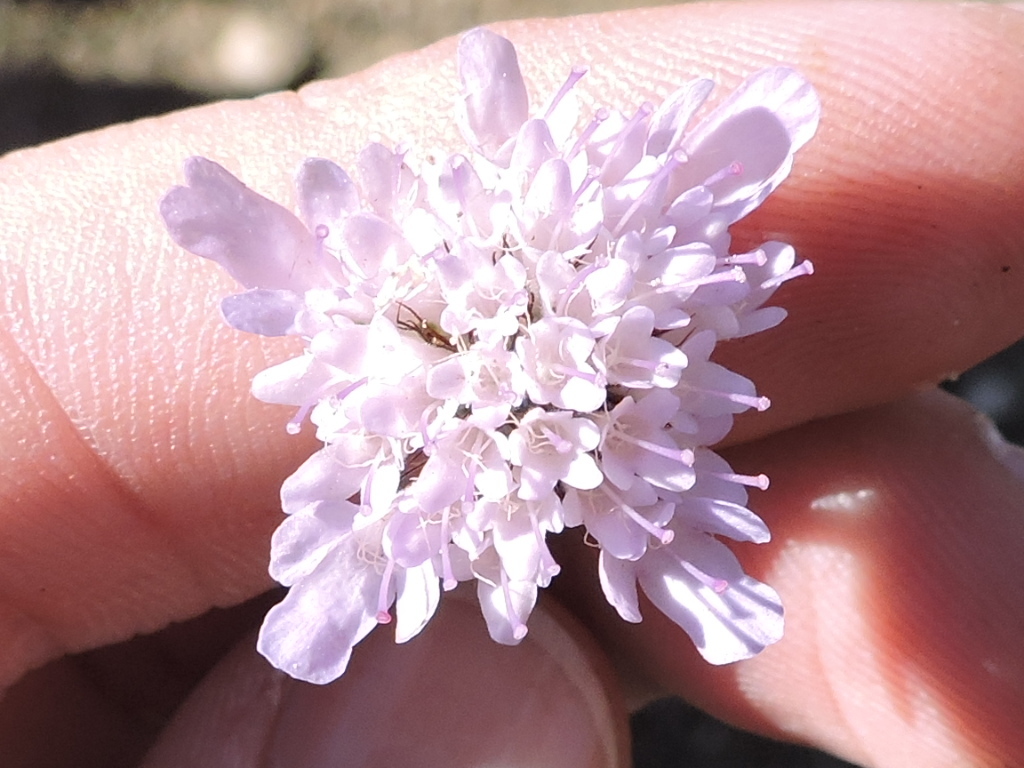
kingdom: Plantae
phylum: Tracheophyta
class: Magnoliopsida
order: Dipsacales
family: Caprifoliaceae
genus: Sixalix
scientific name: Sixalix atropurpurea
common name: Sweet scabious
